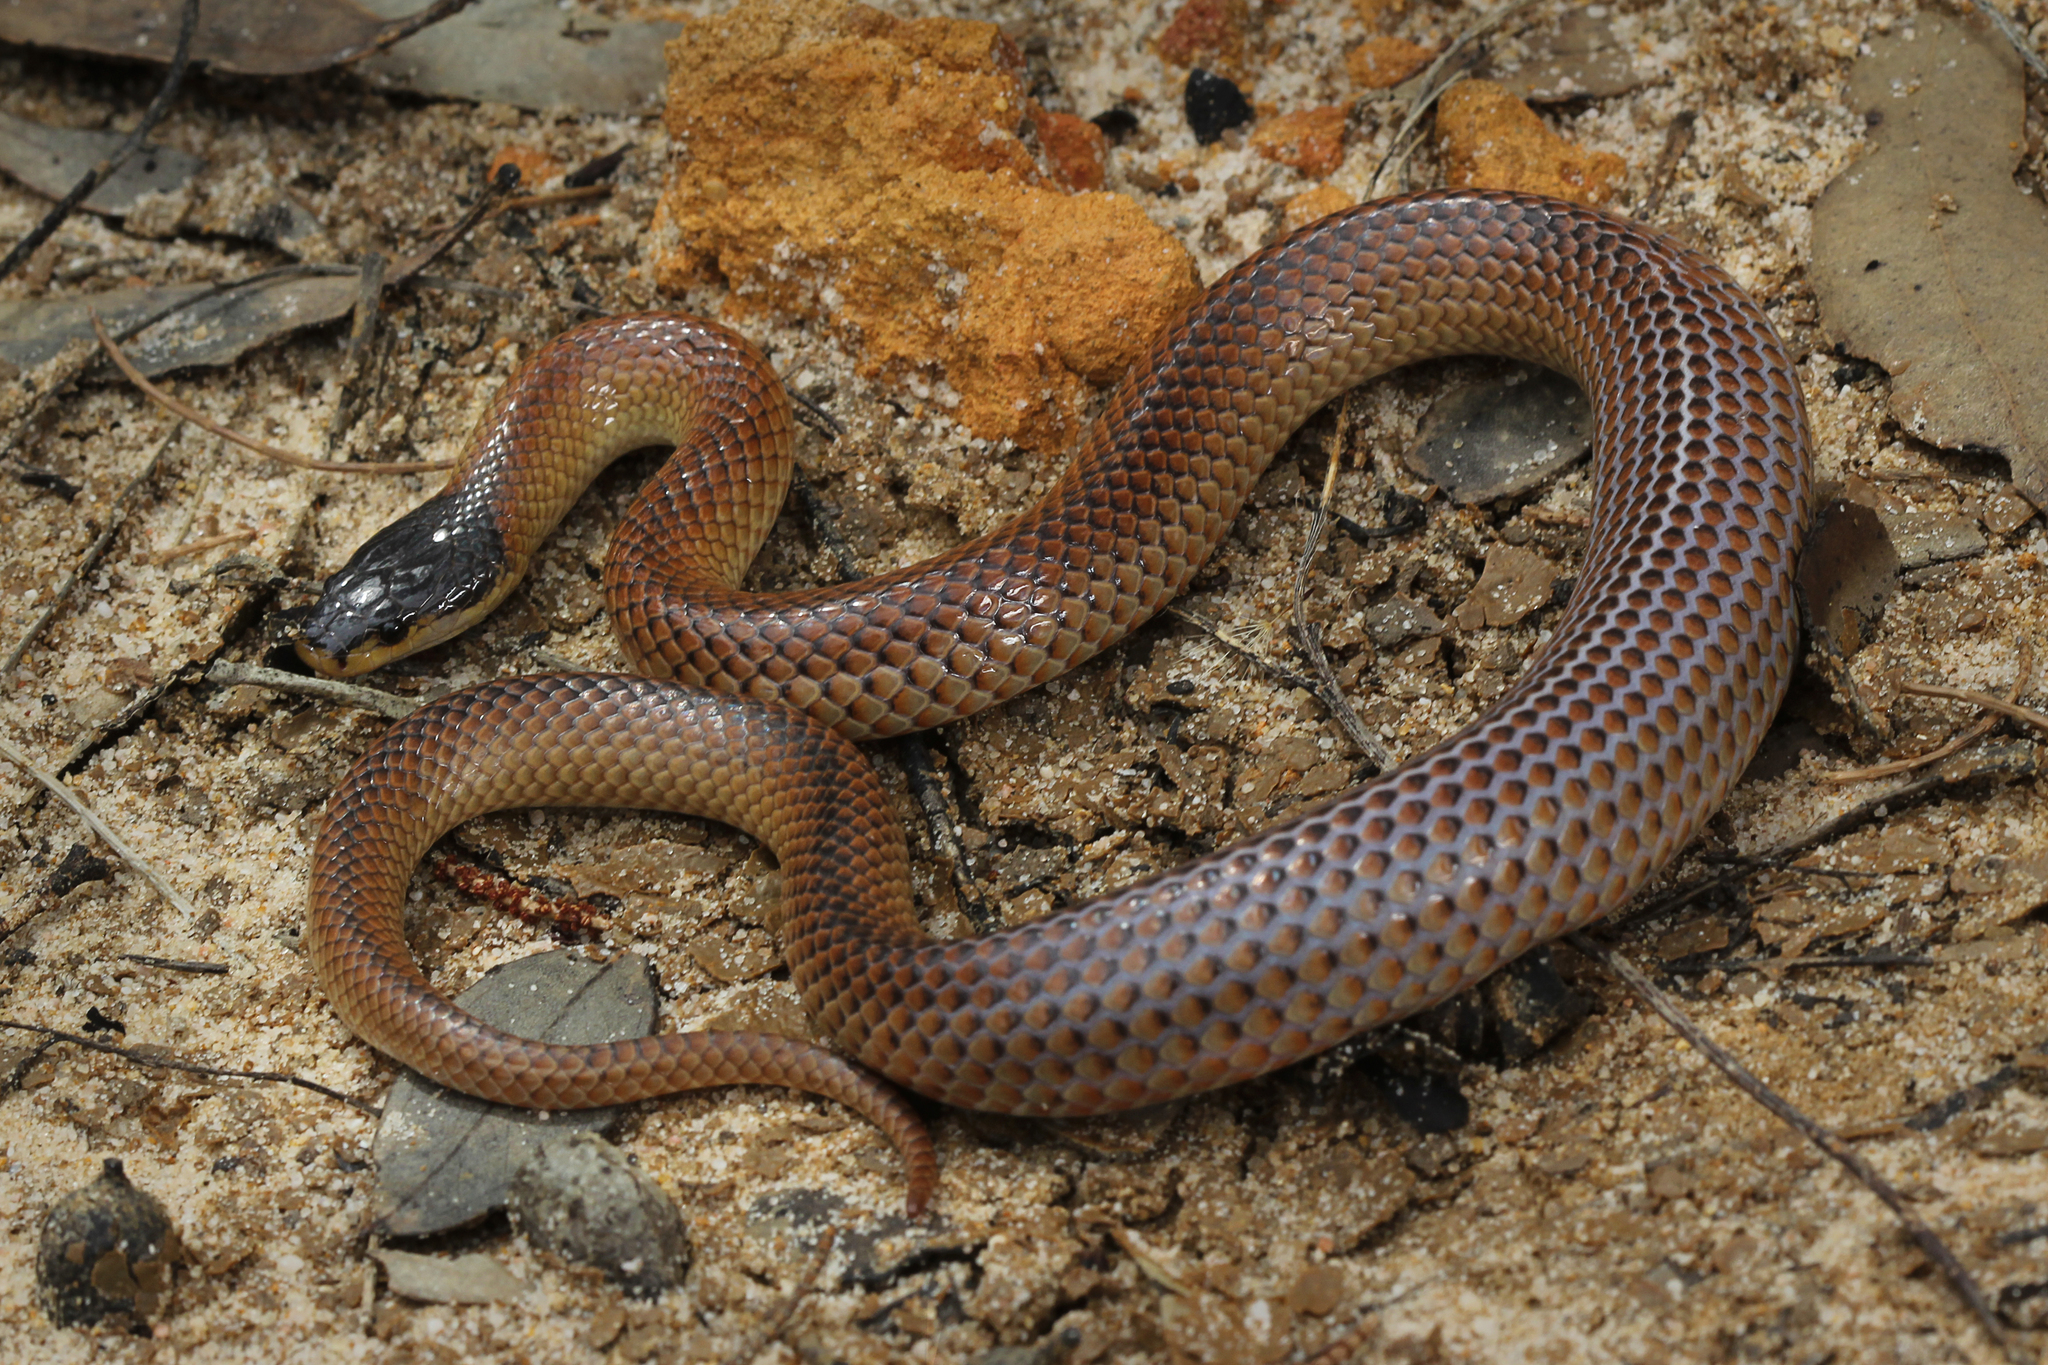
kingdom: Animalia
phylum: Chordata
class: Squamata
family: Elapidae
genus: Suta
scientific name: Suta nigriceps
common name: Mallee black-backed snake
